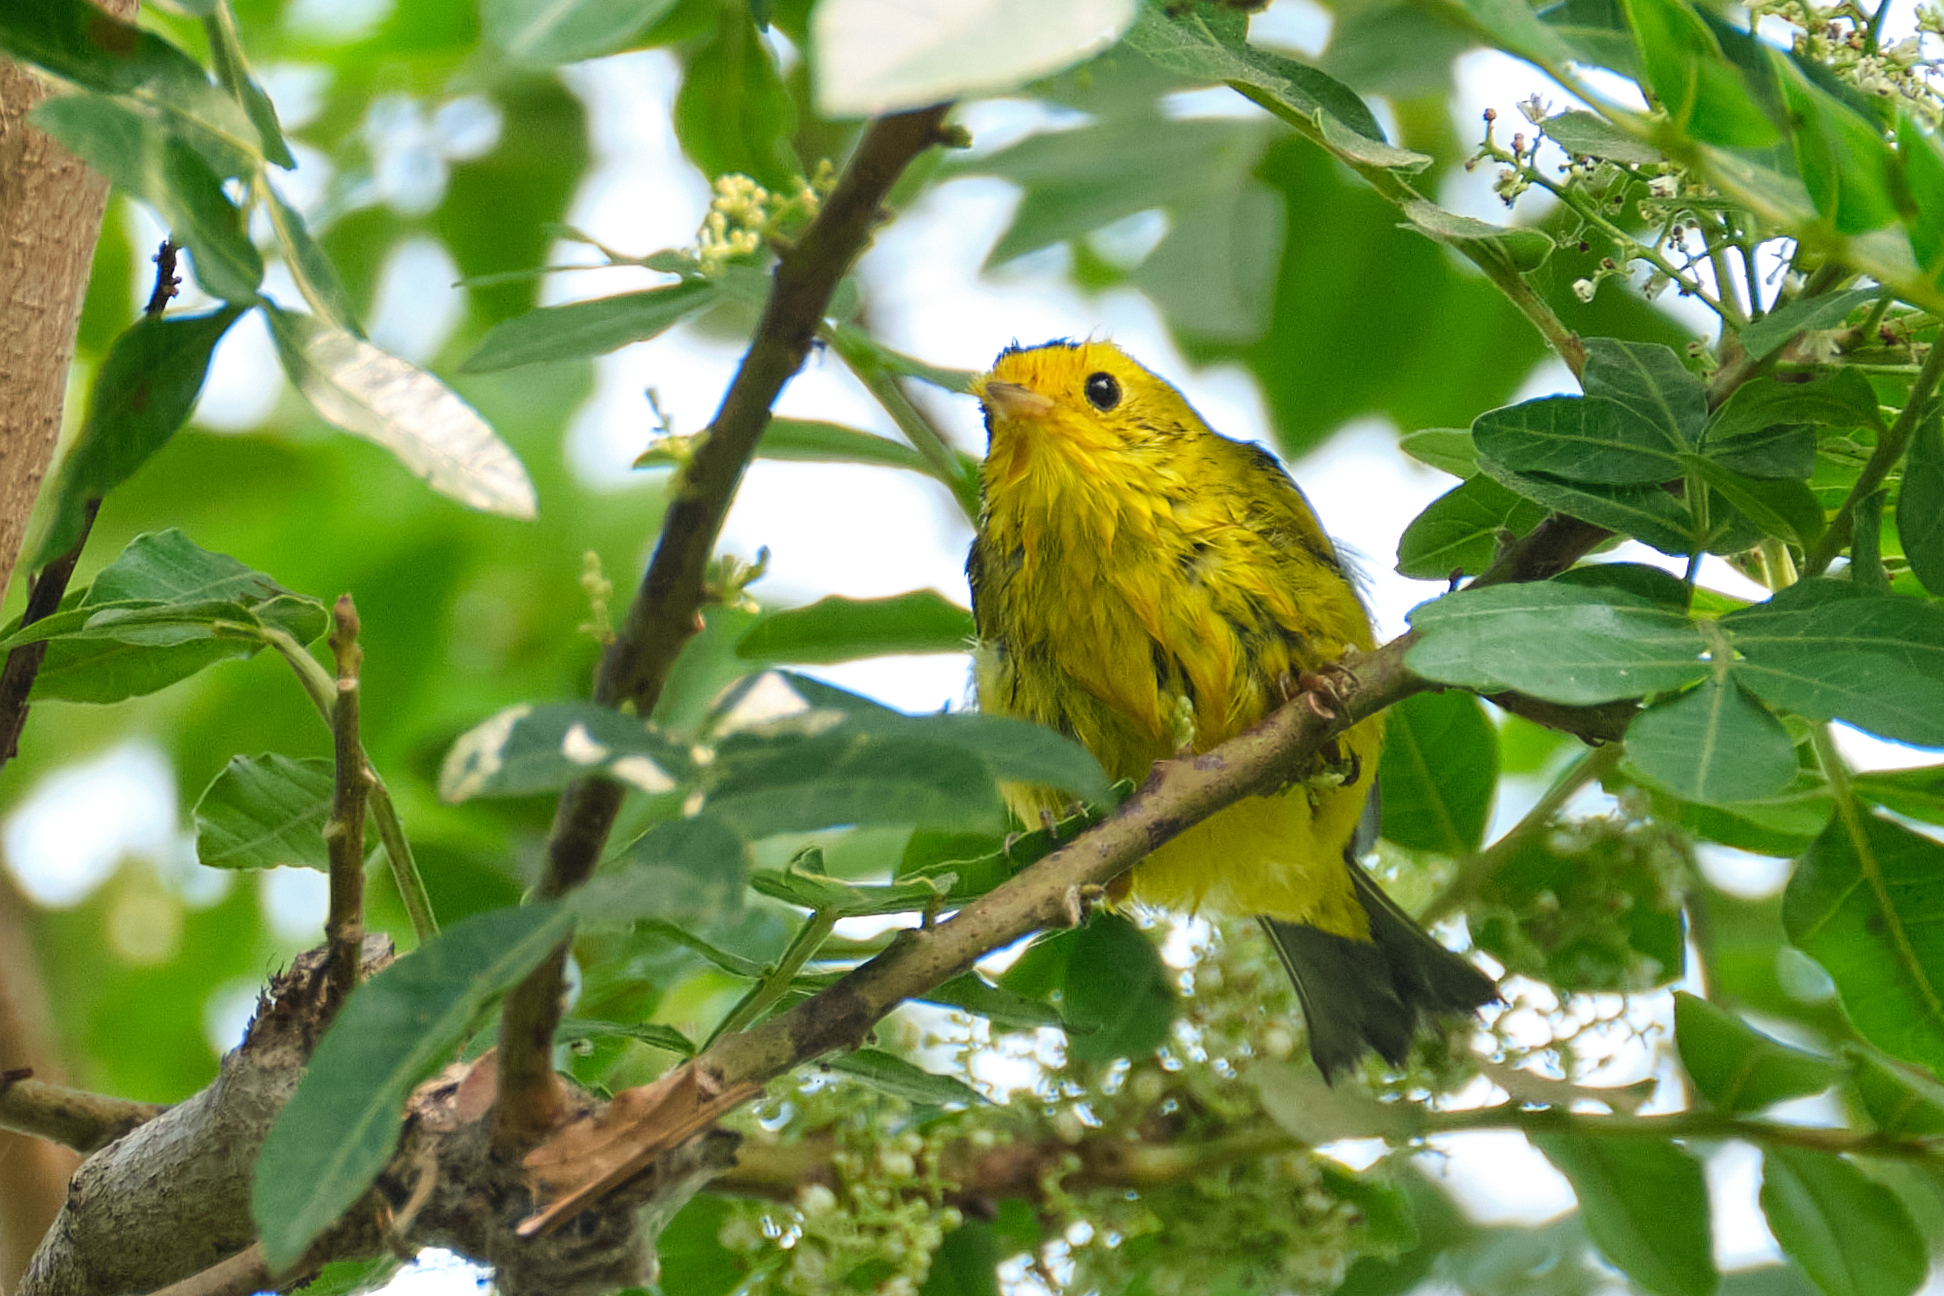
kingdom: Animalia
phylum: Chordata
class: Aves
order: Passeriformes
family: Parulidae
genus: Cardellina
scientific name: Cardellina pusilla
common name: Wilson's warbler
